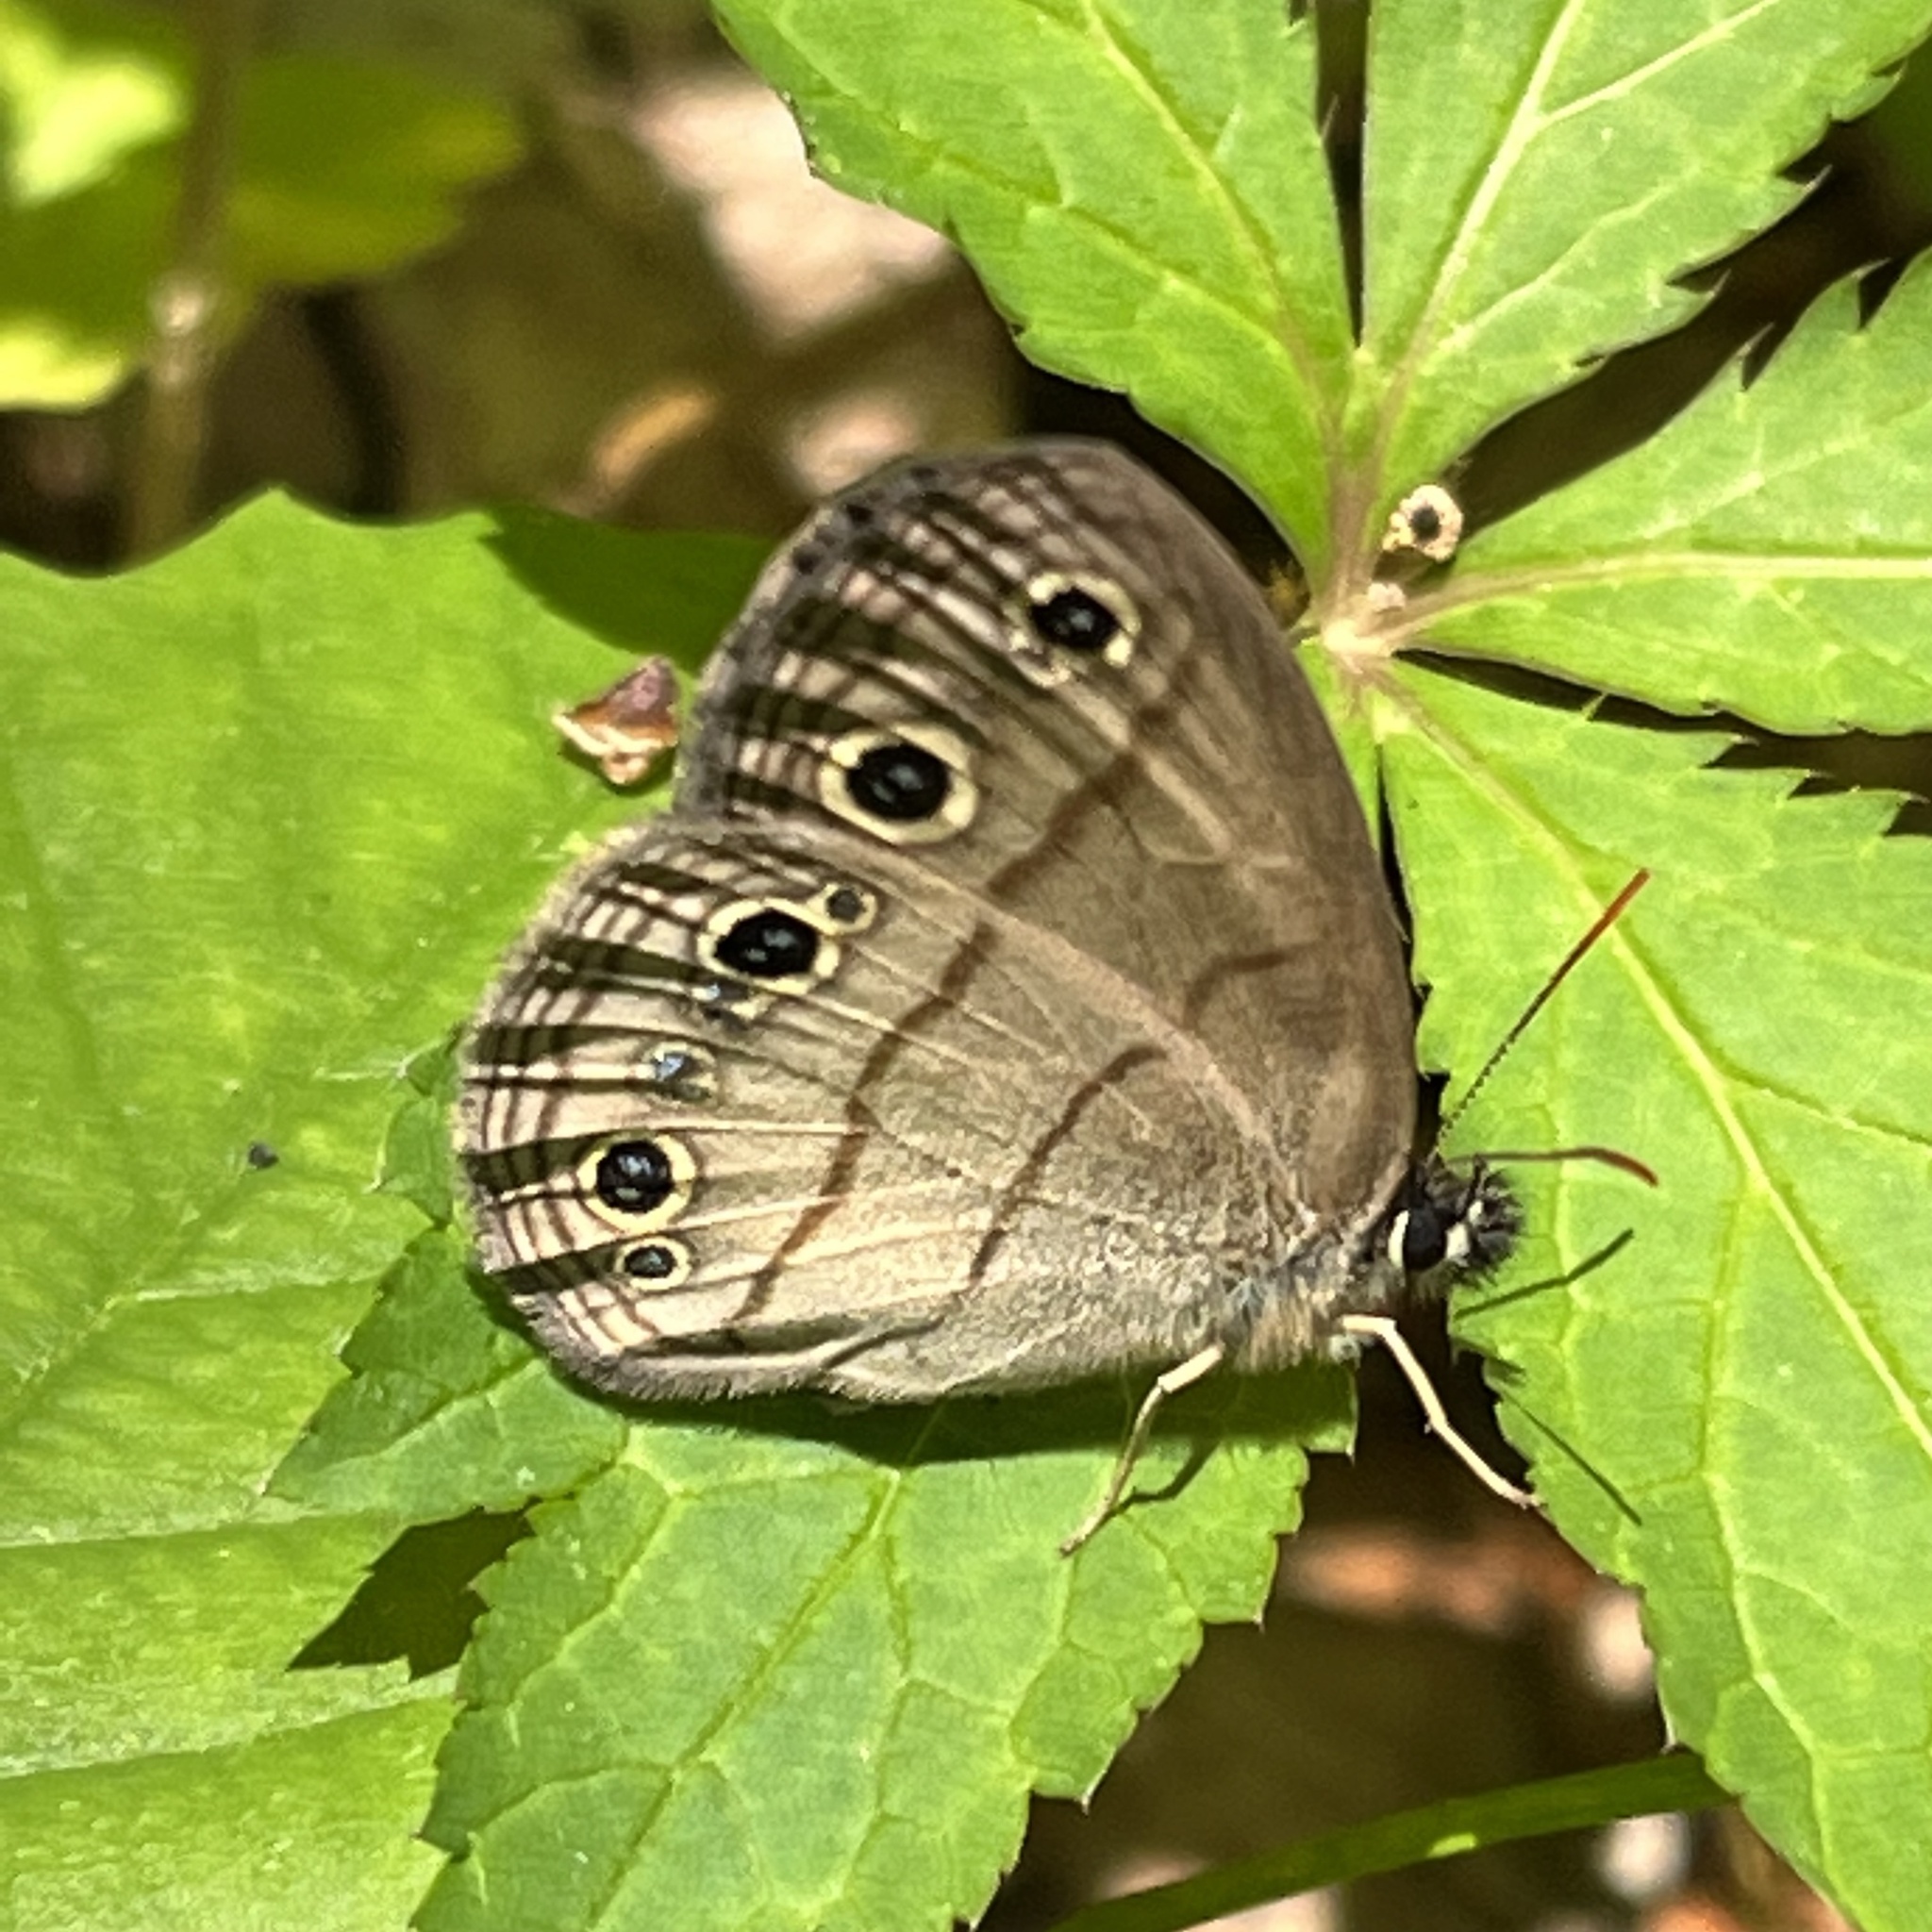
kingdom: Animalia
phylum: Arthropoda
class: Insecta
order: Lepidoptera
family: Nymphalidae
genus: Euptychia
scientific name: Euptychia cymela
